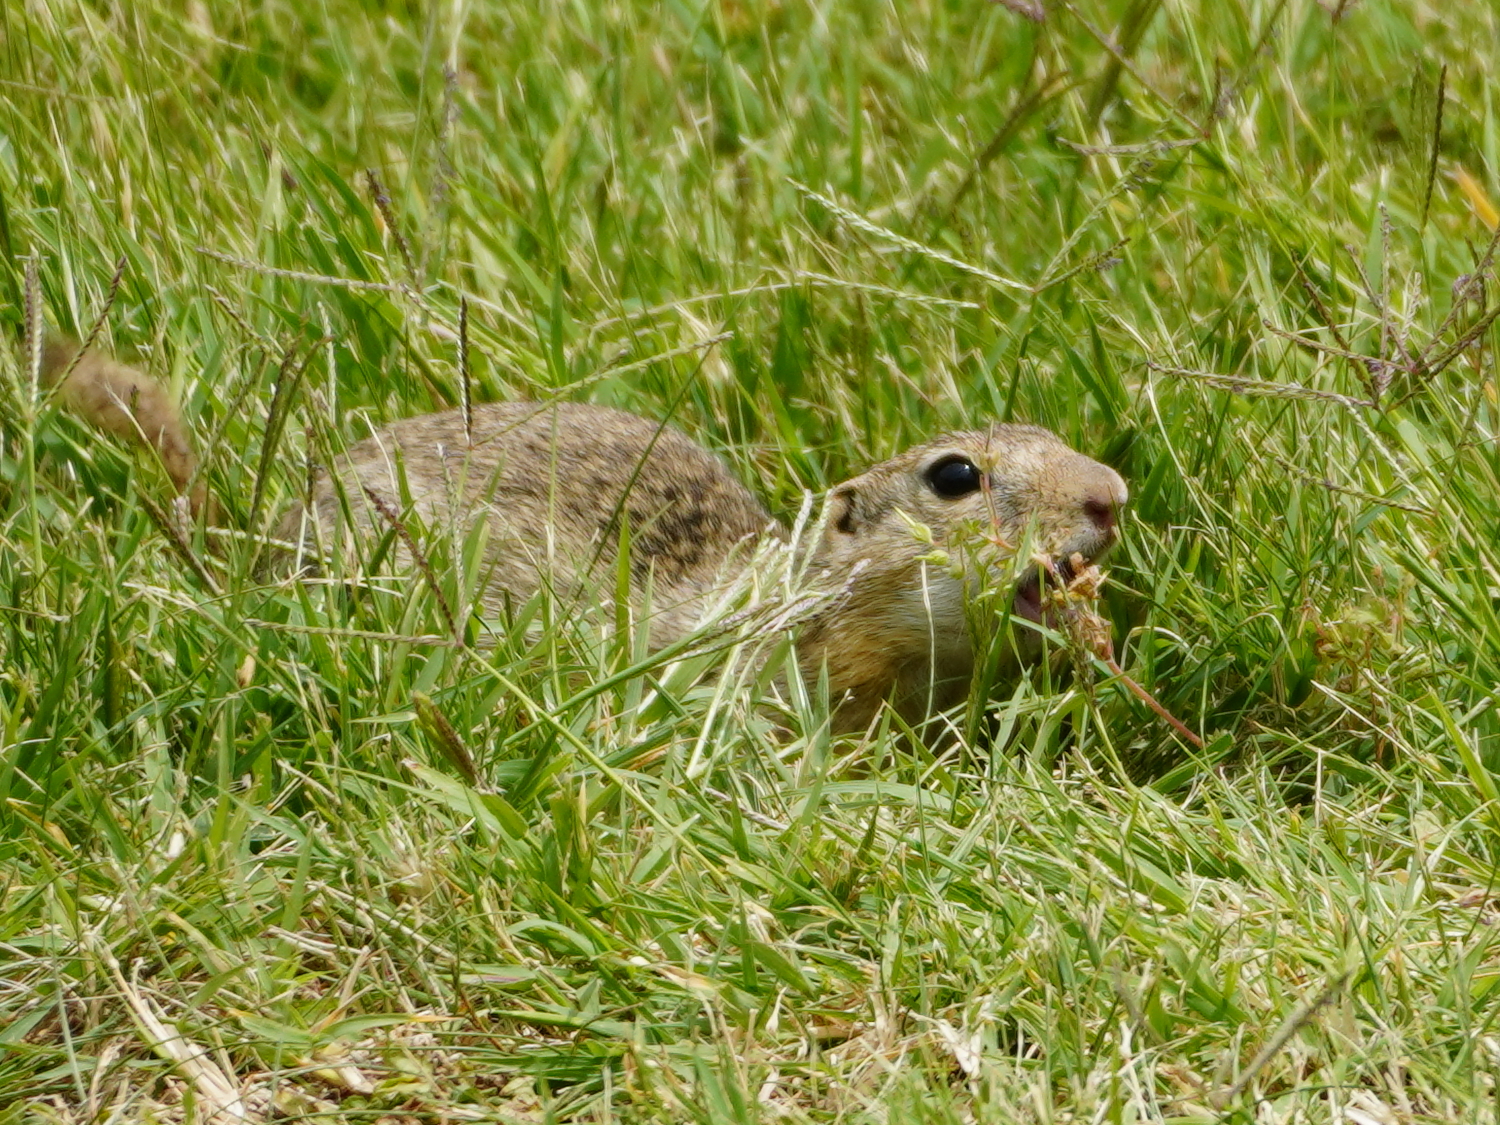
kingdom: Animalia
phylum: Chordata
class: Mammalia
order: Rodentia
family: Sciuridae
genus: Spermophilus
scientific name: Spermophilus citellus
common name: European ground squirrel
